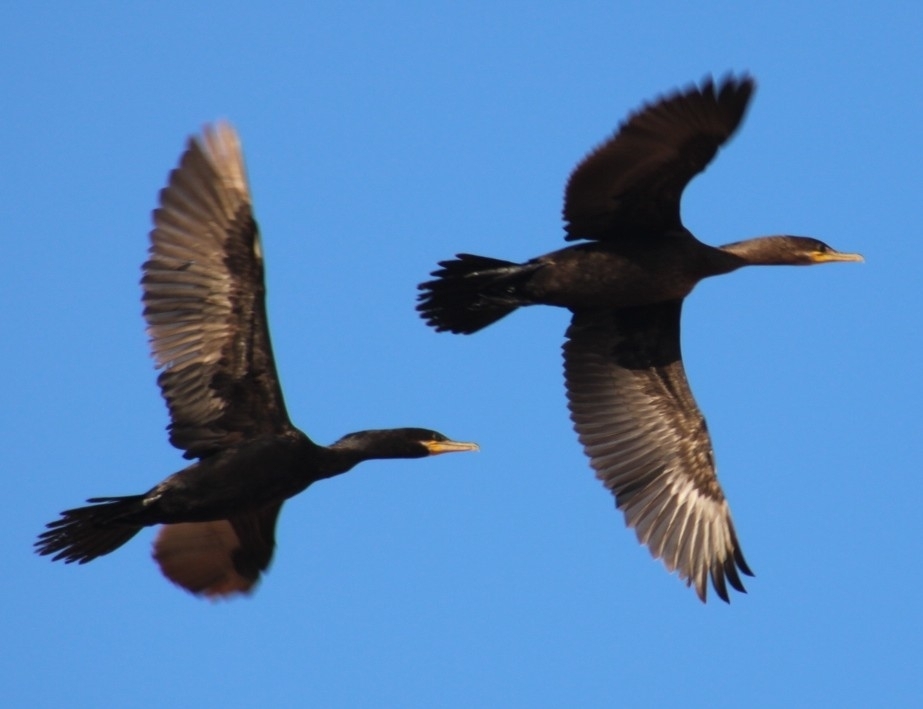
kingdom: Animalia
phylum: Chordata
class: Aves
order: Suliformes
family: Phalacrocoracidae
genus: Phalacrocorax
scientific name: Phalacrocorax brasilianus
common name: Neotropic cormorant
